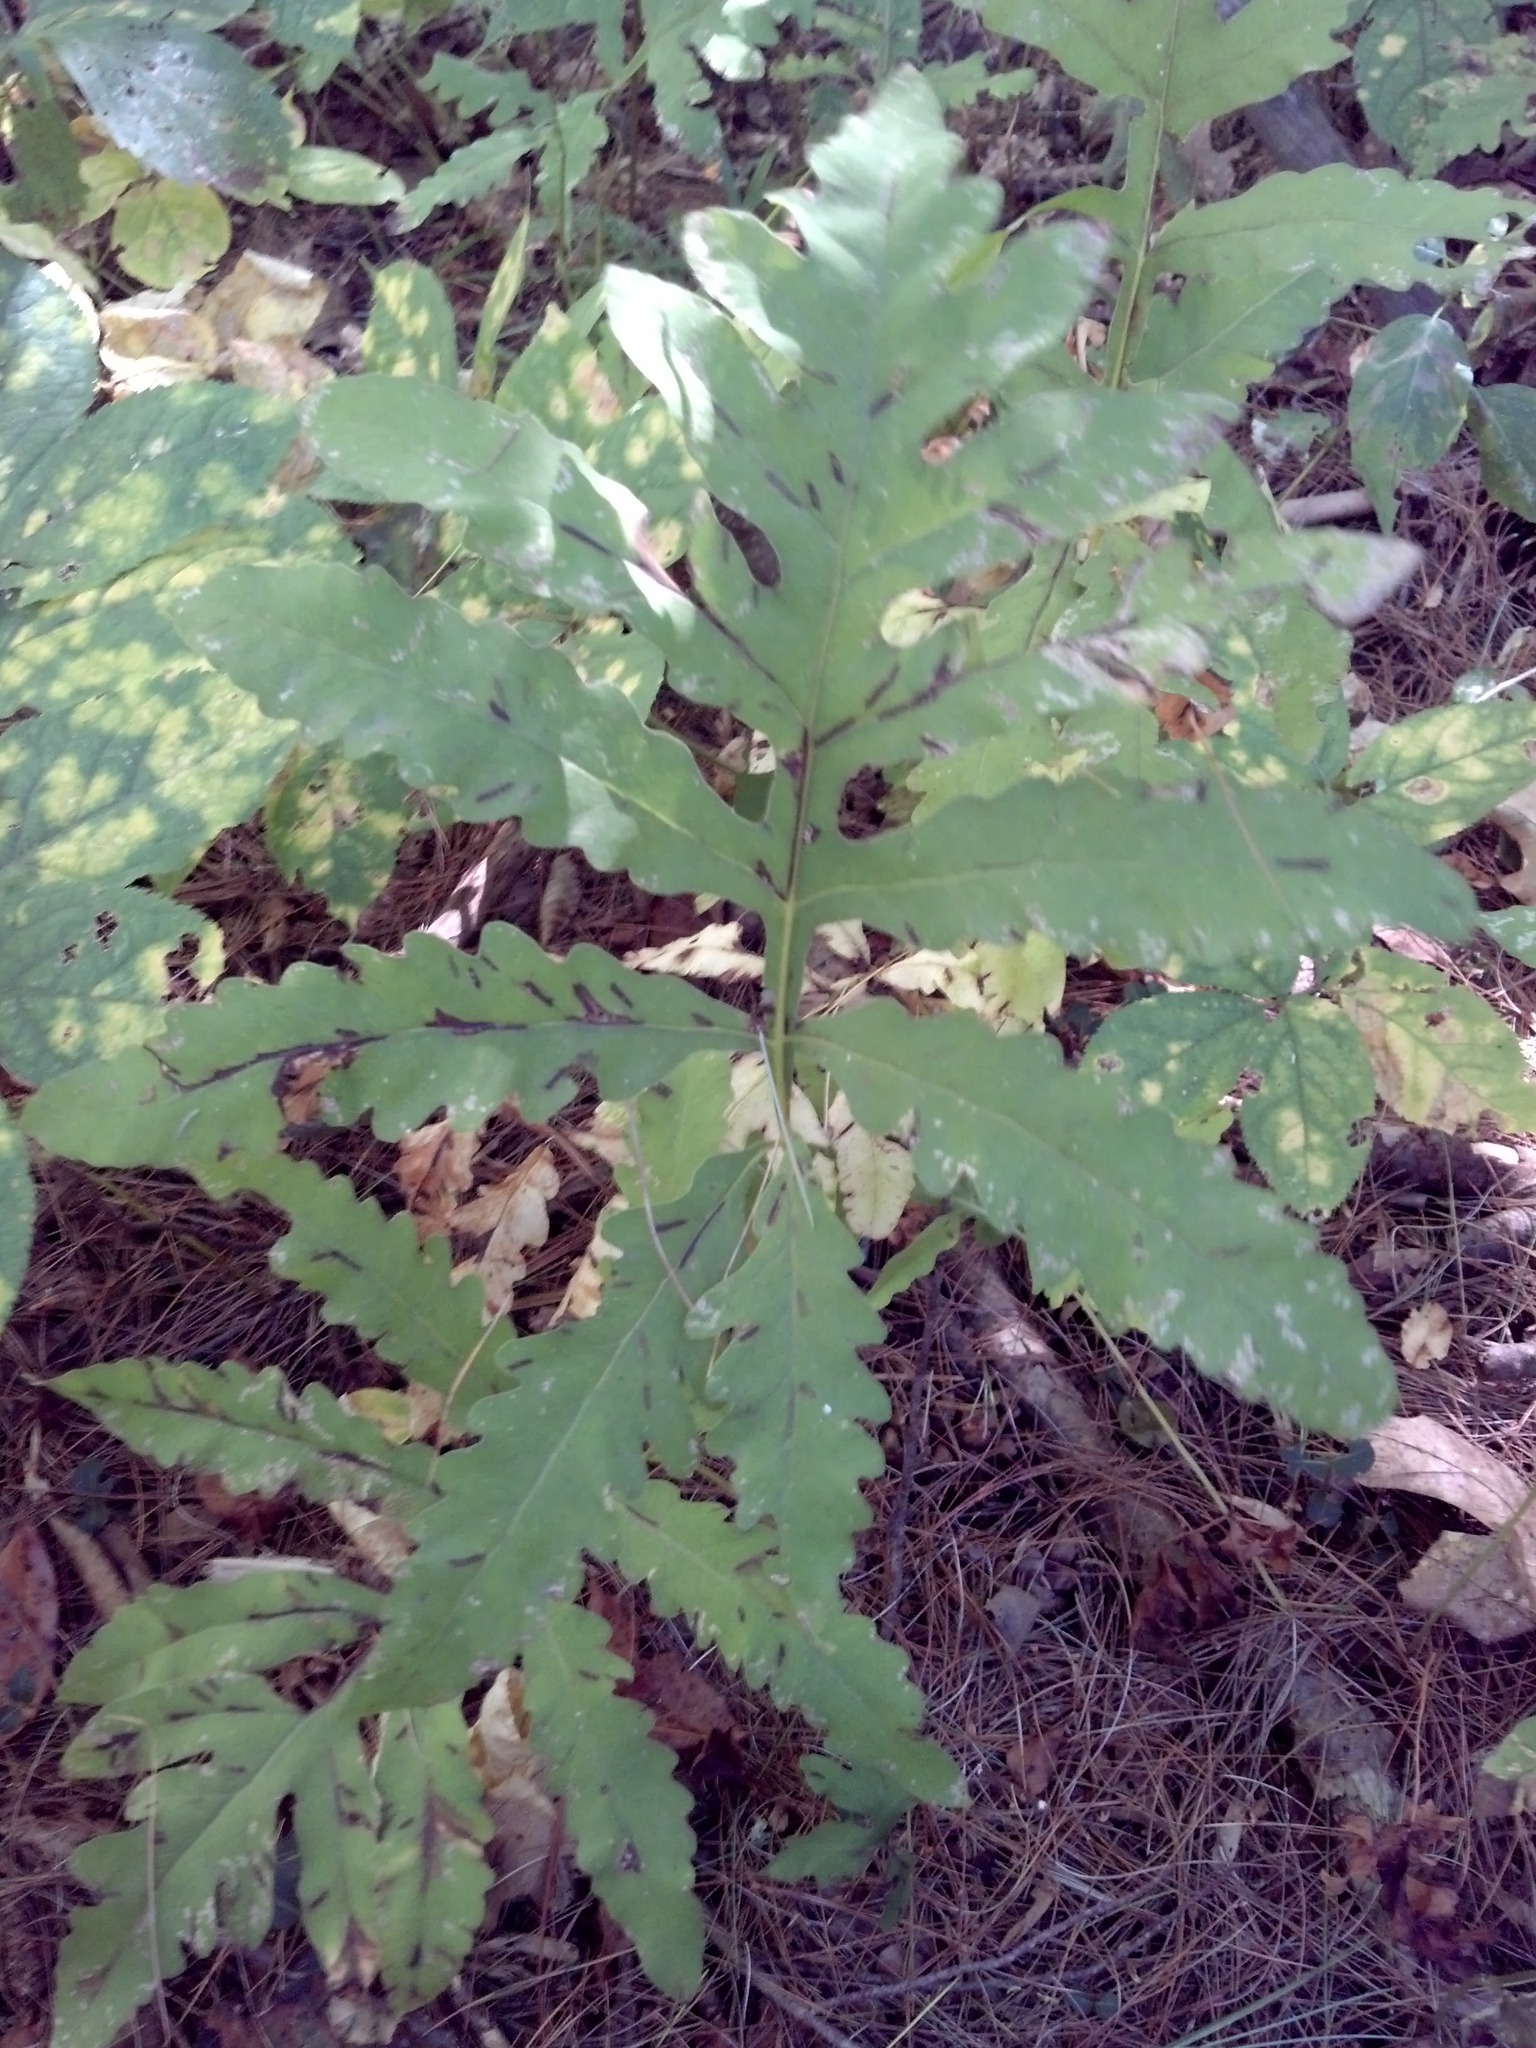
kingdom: Plantae
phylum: Tracheophyta
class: Polypodiopsida
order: Polypodiales
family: Onocleaceae
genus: Onoclea
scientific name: Onoclea sensibilis
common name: Sensitive fern
